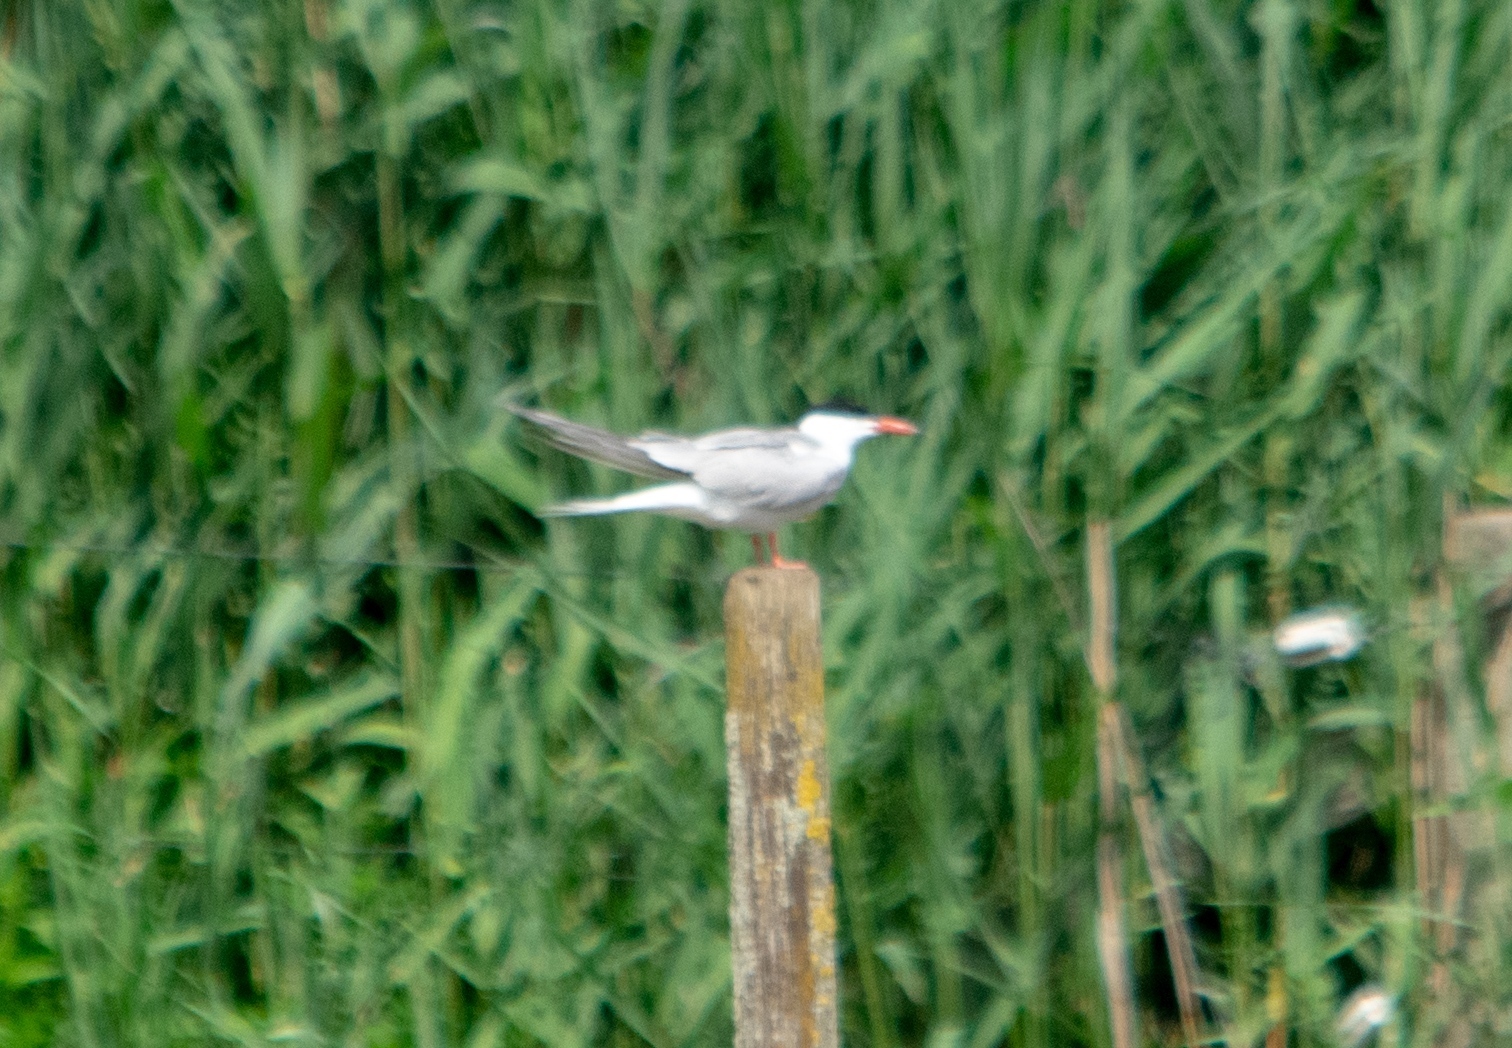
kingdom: Animalia
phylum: Chordata
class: Aves
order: Charadriiformes
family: Laridae
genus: Sterna
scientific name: Sterna hirundo
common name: Common tern
